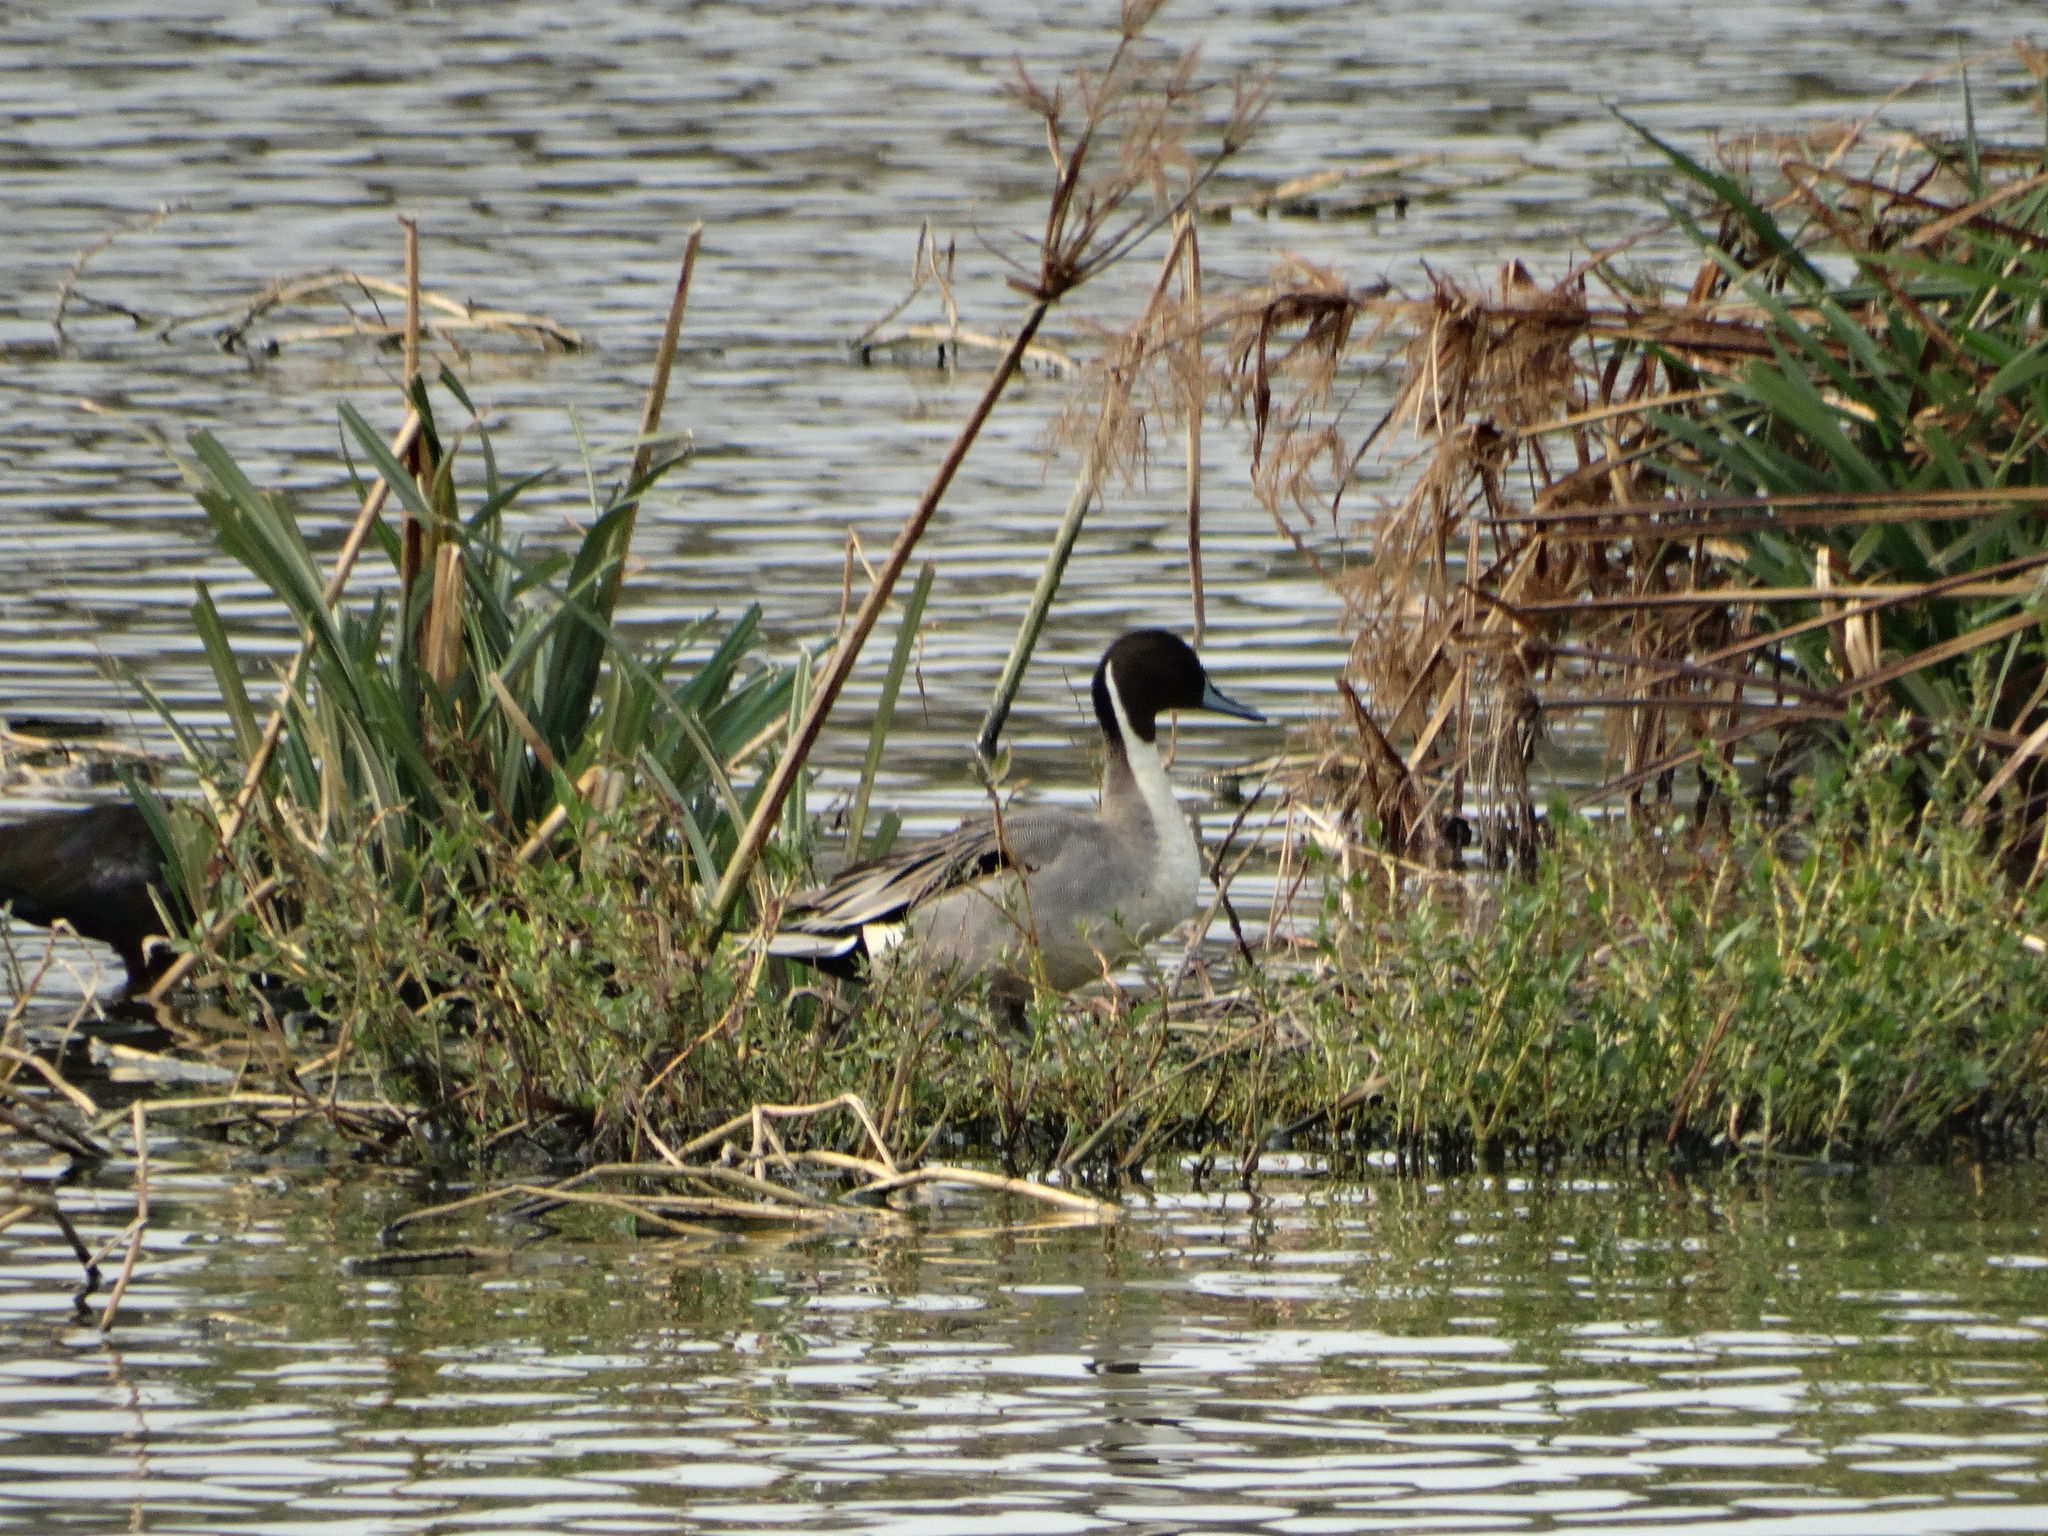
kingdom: Animalia
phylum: Chordata
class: Aves
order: Anseriformes
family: Anatidae
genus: Anas
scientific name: Anas acuta
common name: Northern pintail
